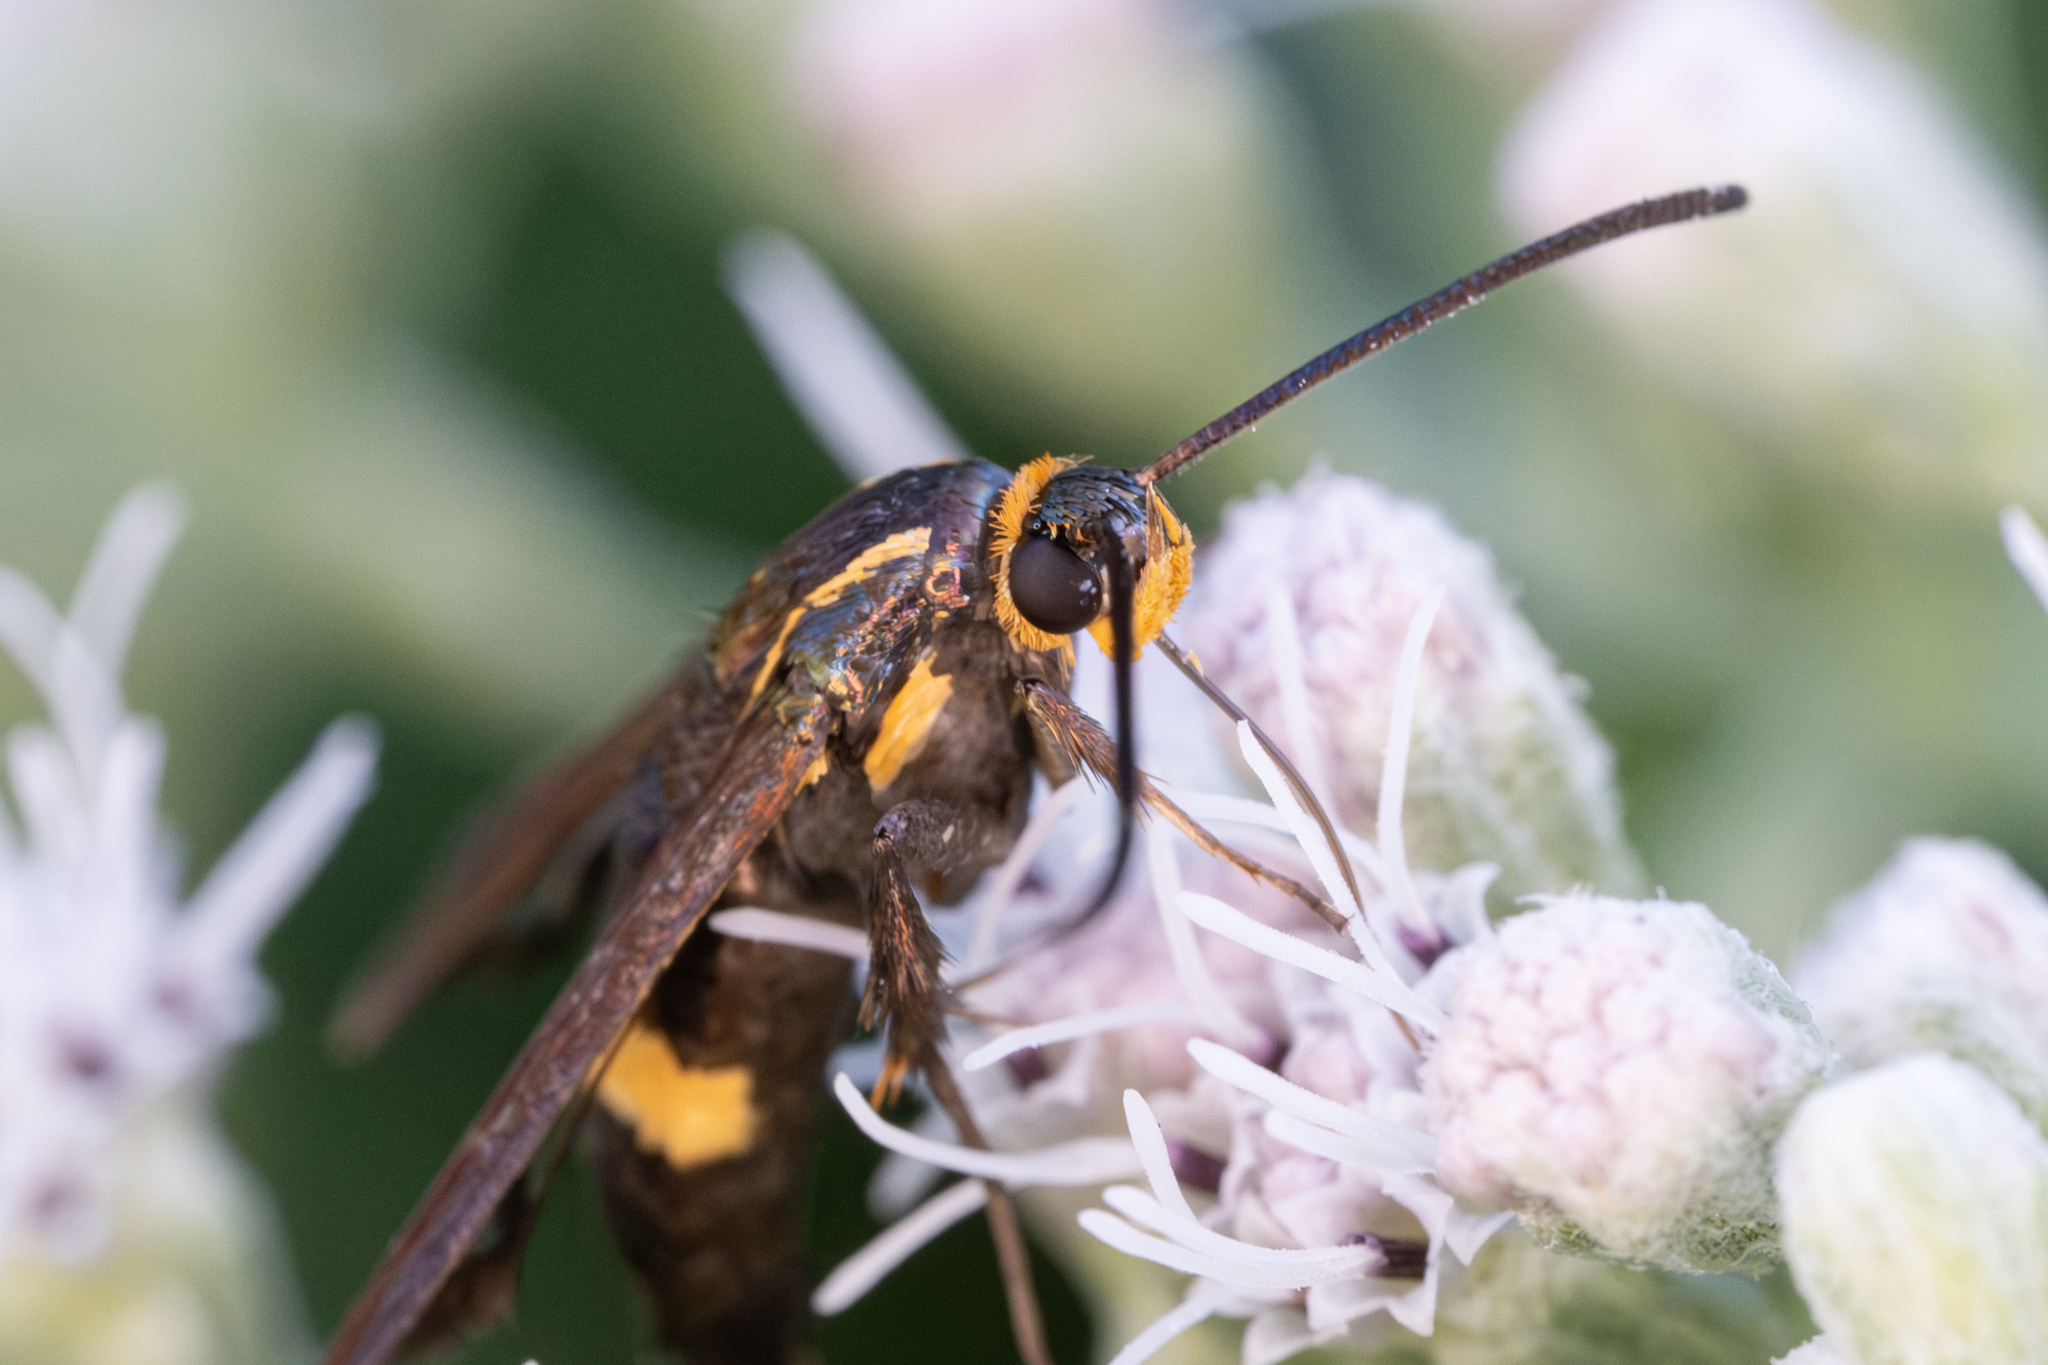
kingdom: Animalia
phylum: Arthropoda
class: Insecta
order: Lepidoptera
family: Sesiidae
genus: Carmenta
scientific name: Carmenta pyralidiformis
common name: Boneset borer moth
